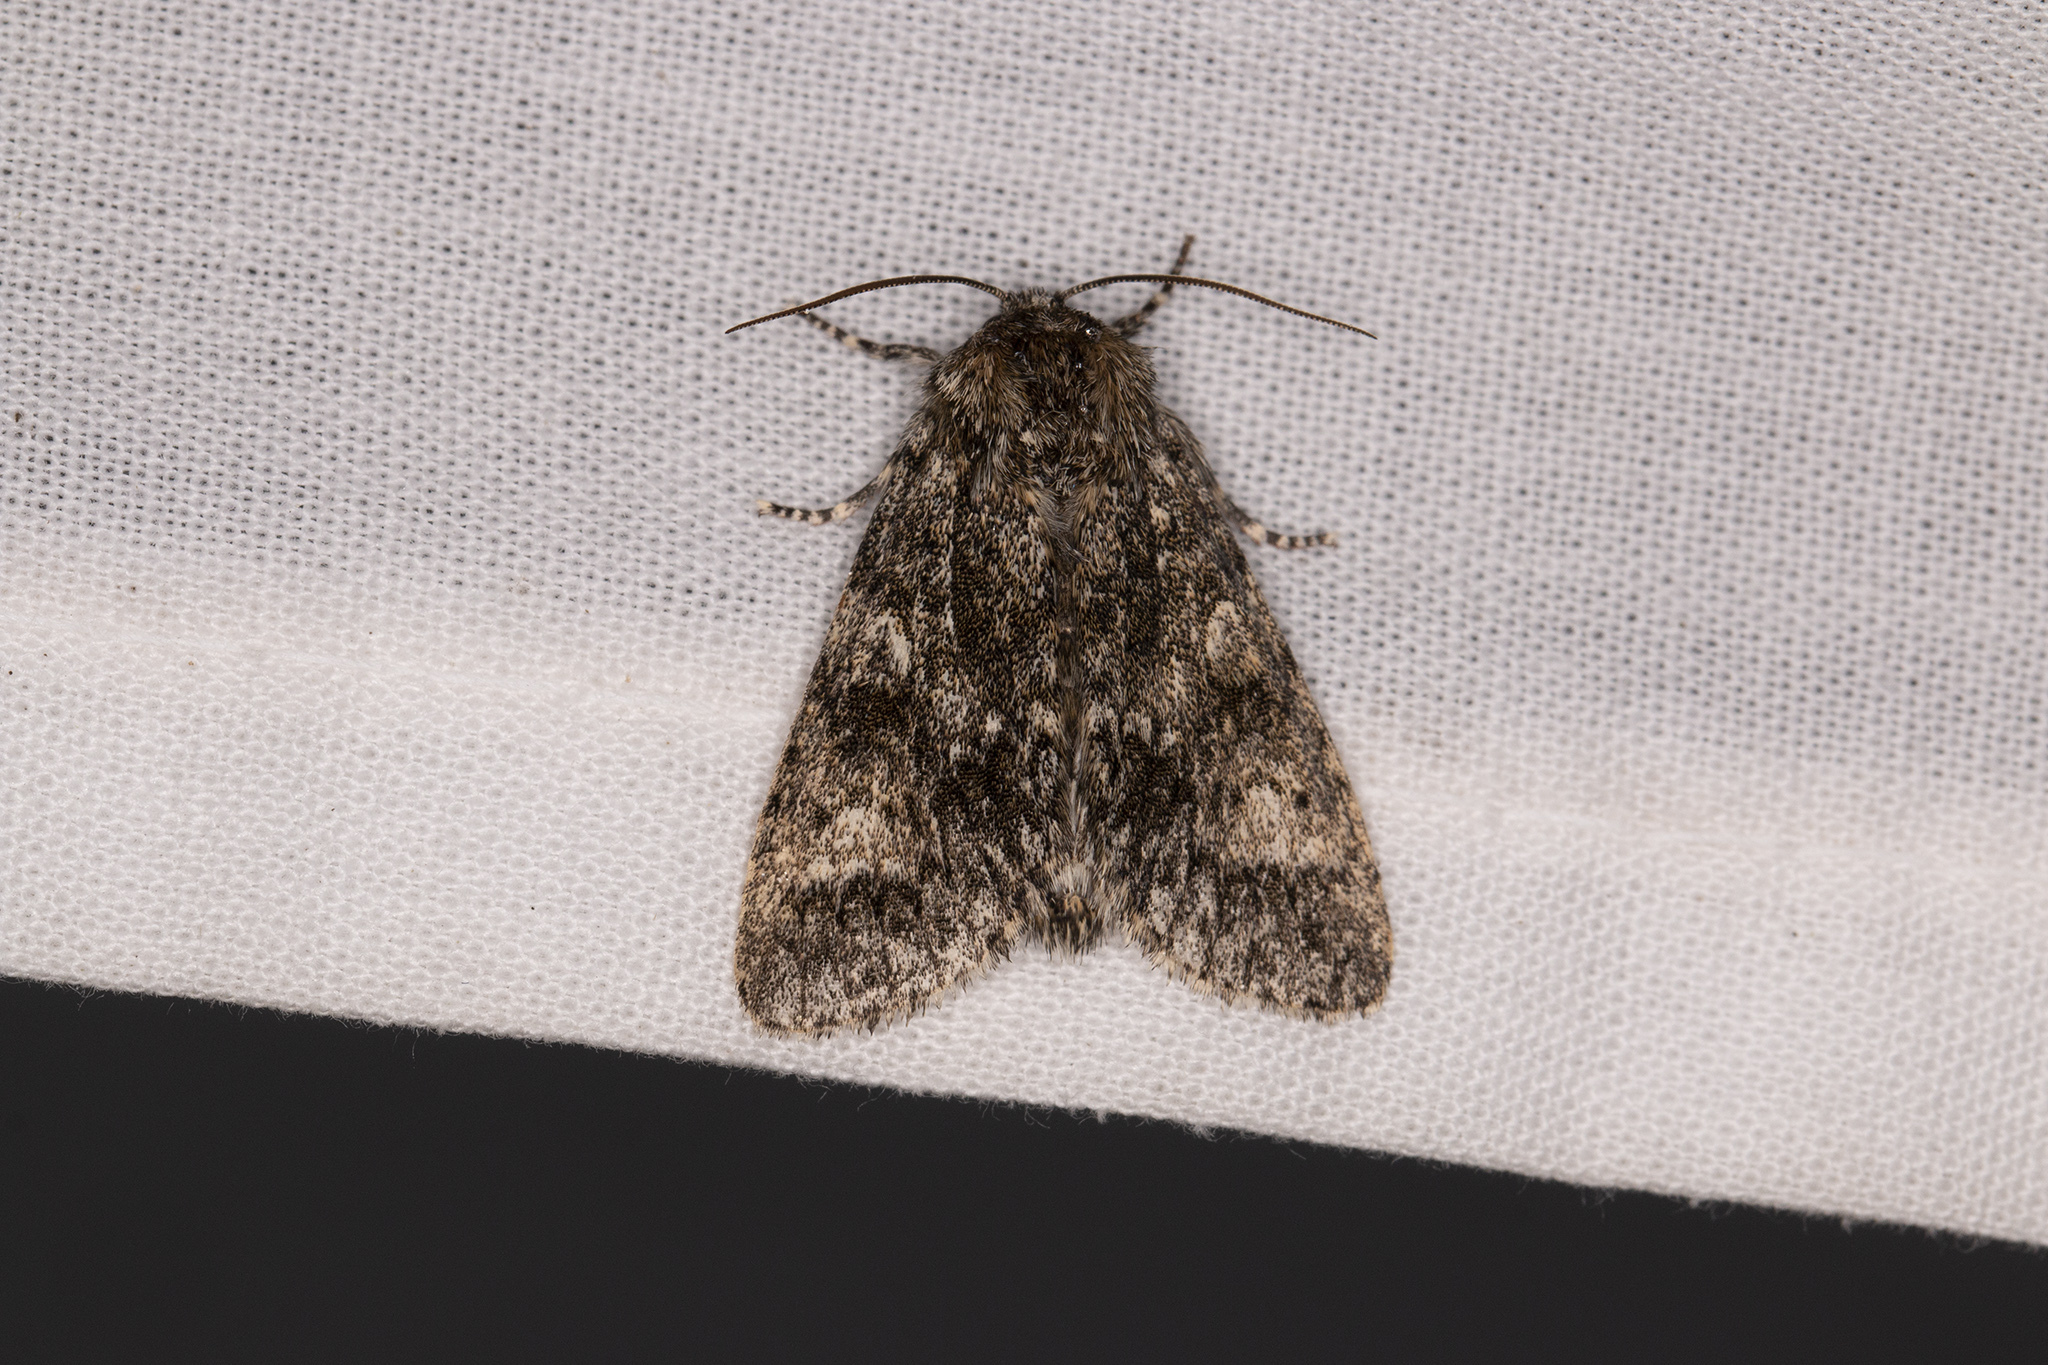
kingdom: Animalia
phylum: Arthropoda
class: Insecta
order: Lepidoptera
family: Noctuidae
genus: Acronicta
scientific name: Acronicta megacephala
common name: Poplar grey
